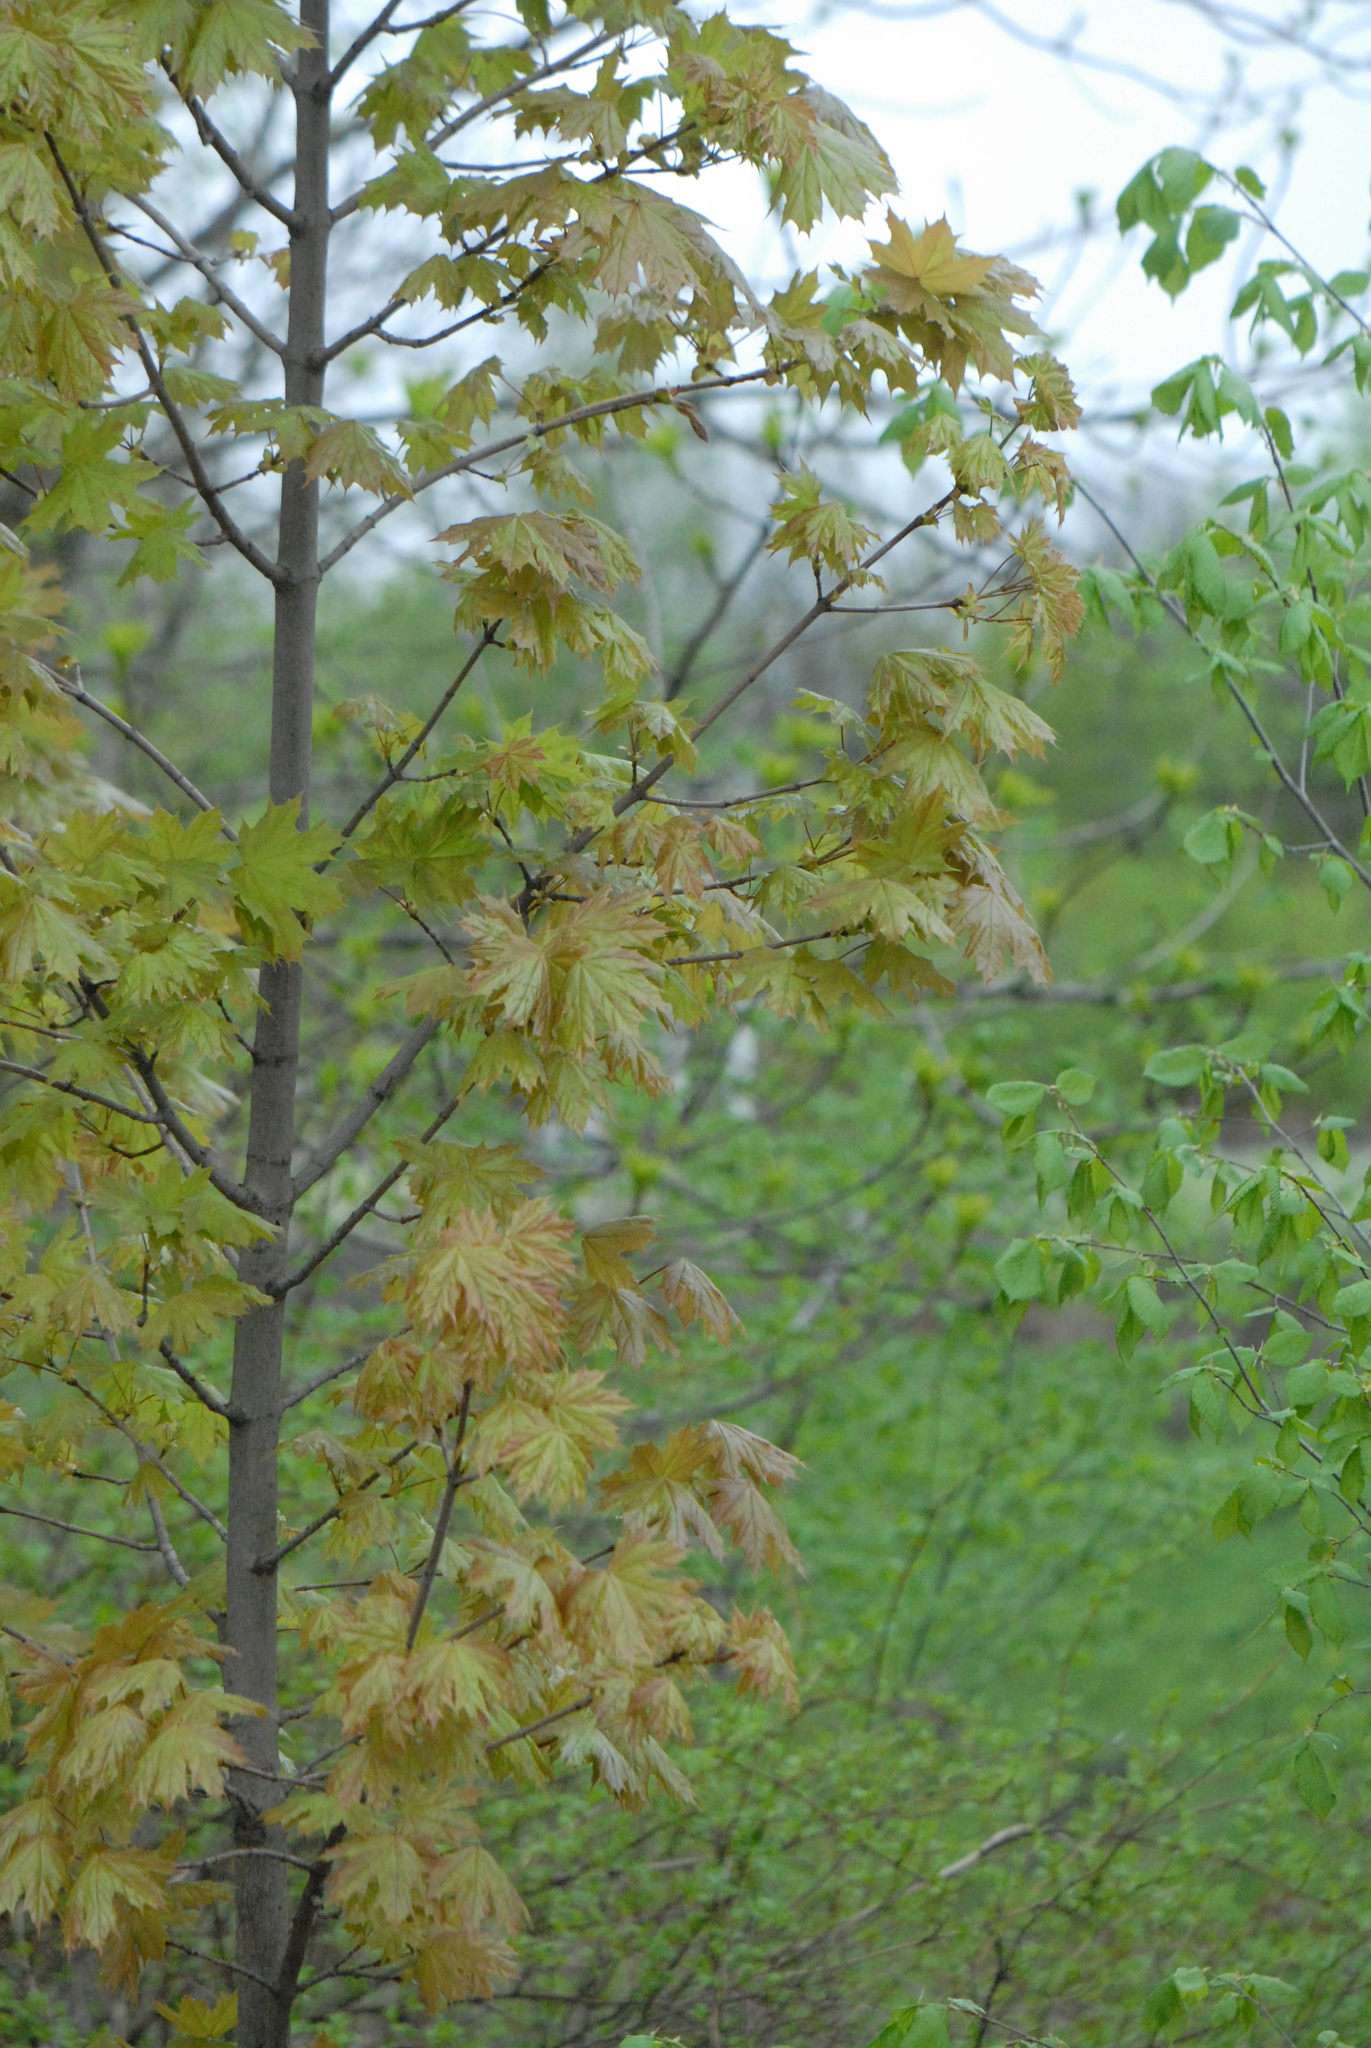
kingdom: Plantae
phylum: Tracheophyta
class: Magnoliopsida
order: Sapindales
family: Sapindaceae
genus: Acer
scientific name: Acer platanoides
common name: Norway maple
